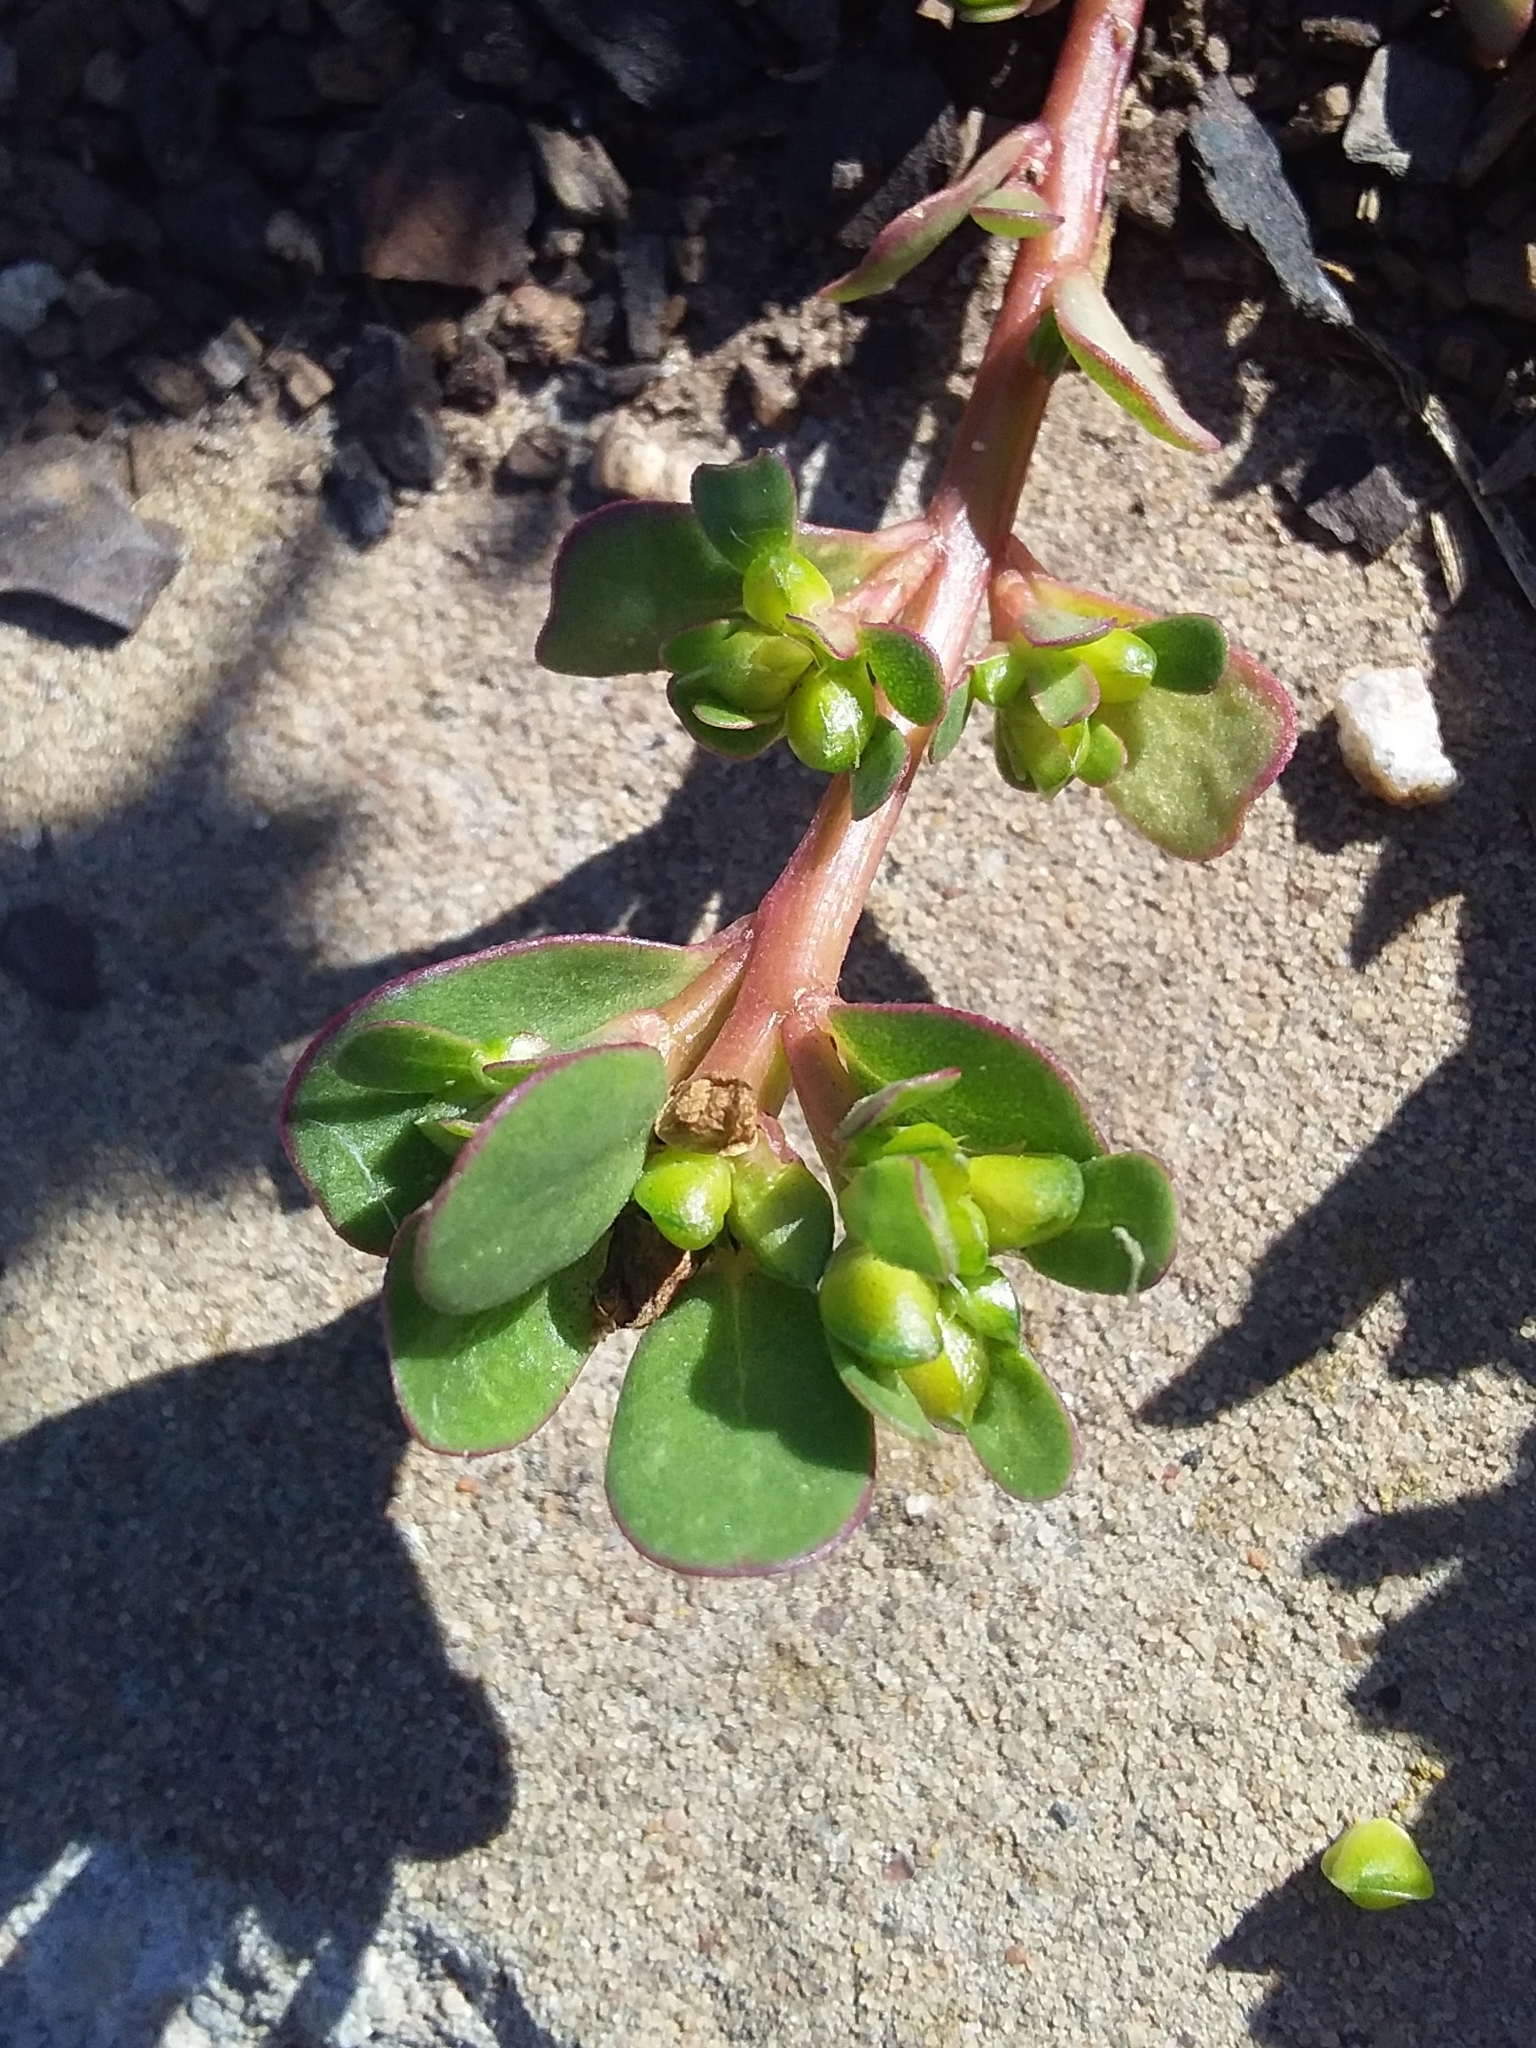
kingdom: Plantae
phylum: Tracheophyta
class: Magnoliopsida
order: Caryophyllales
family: Portulacaceae
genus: Portulaca
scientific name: Portulaca oleracea
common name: Common purslane
